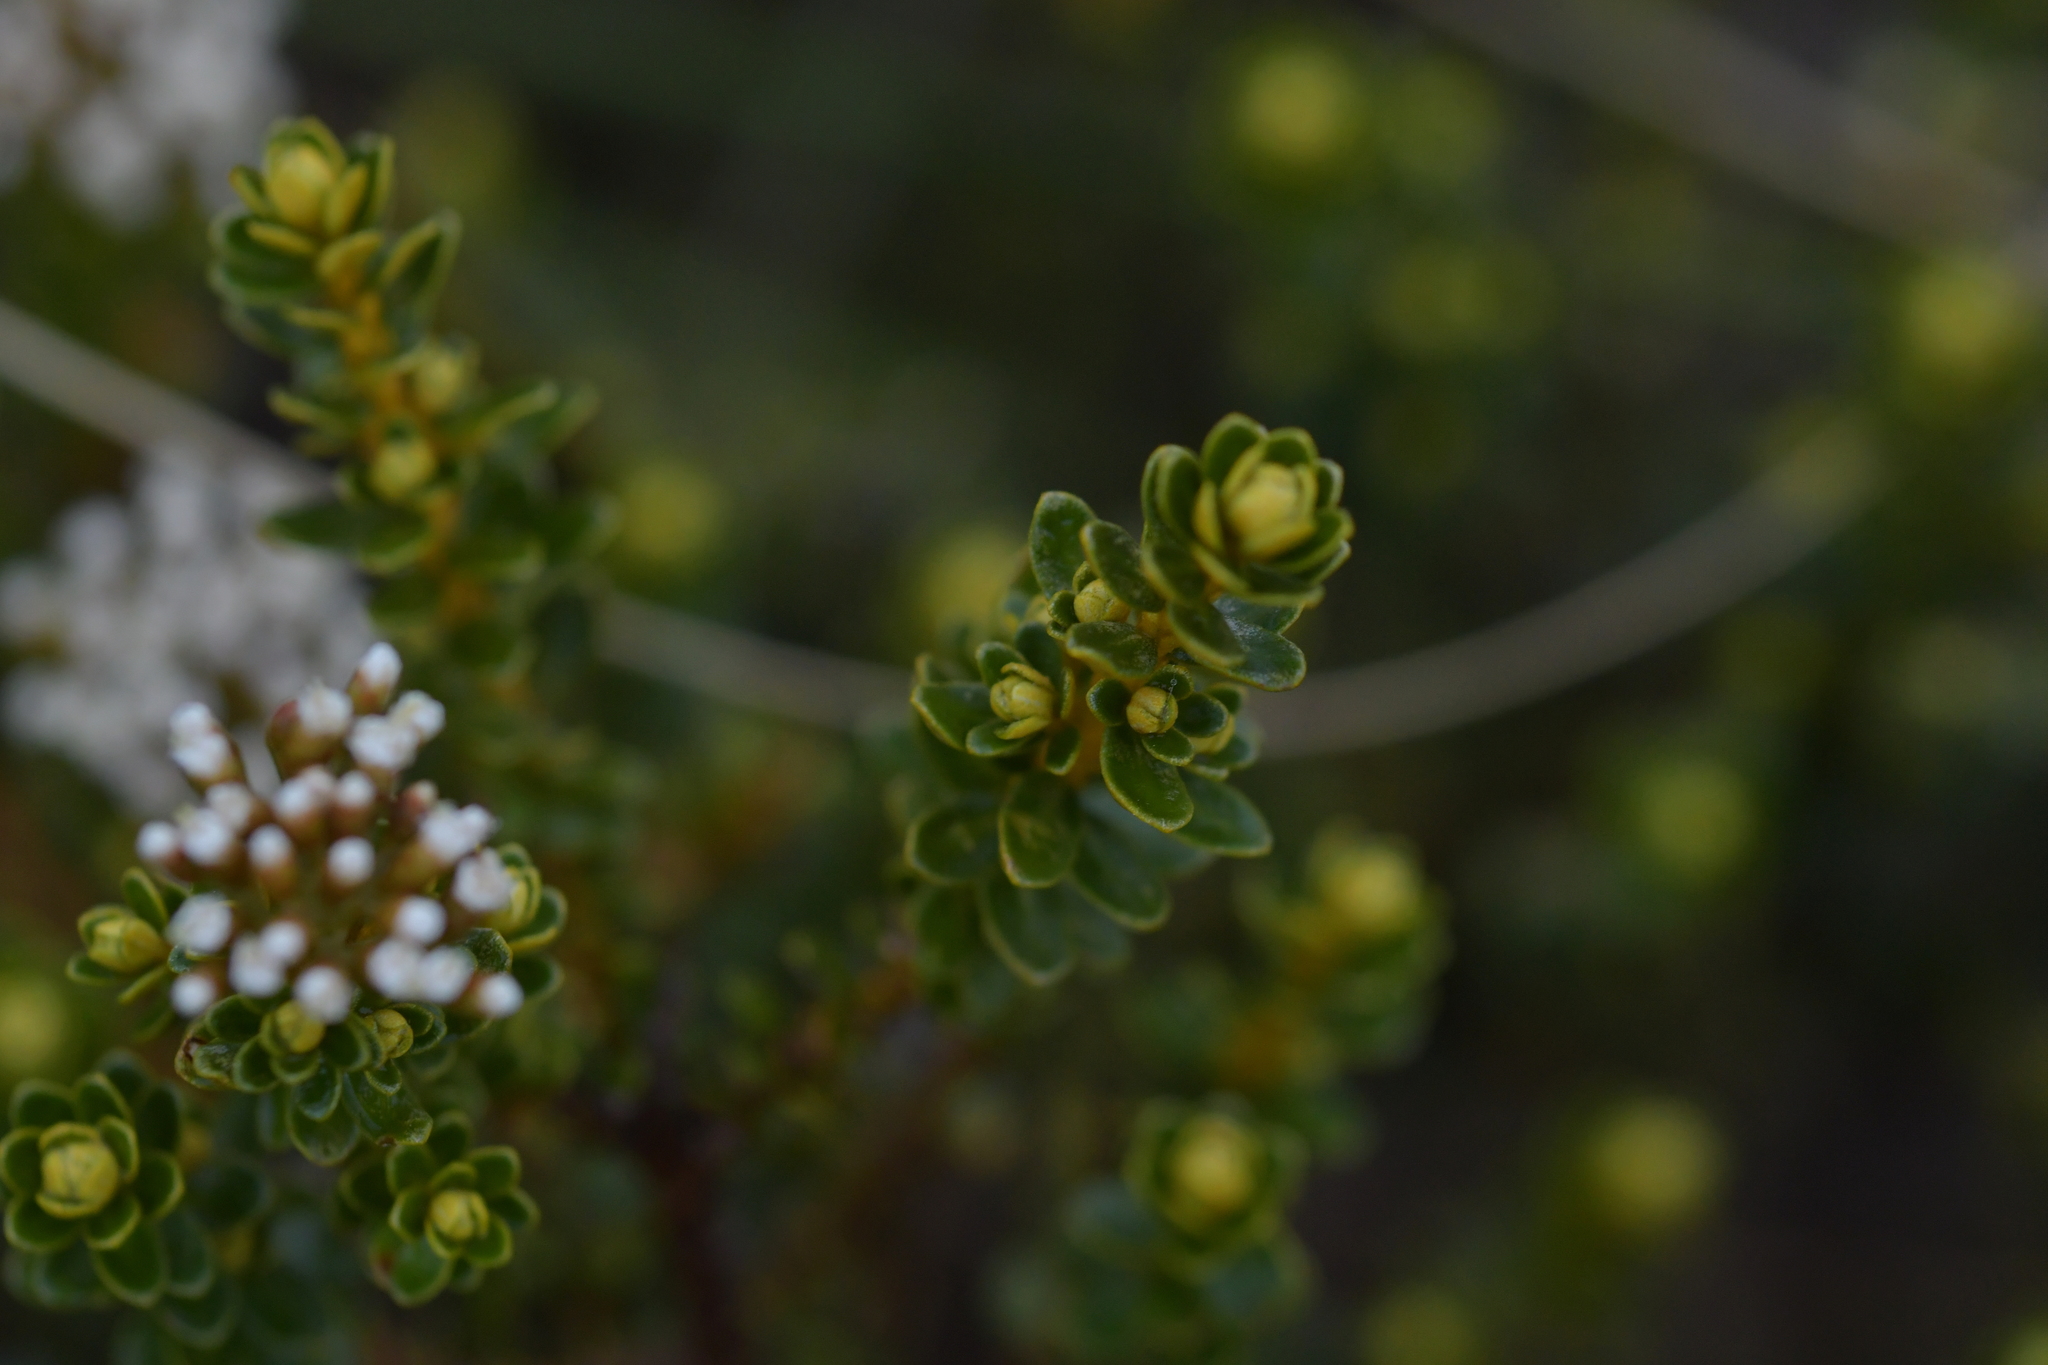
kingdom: Plantae
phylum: Tracheophyta
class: Magnoliopsida
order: Asterales
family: Asteraceae
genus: Ozothamnus
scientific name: Ozothamnus leptophyllus
